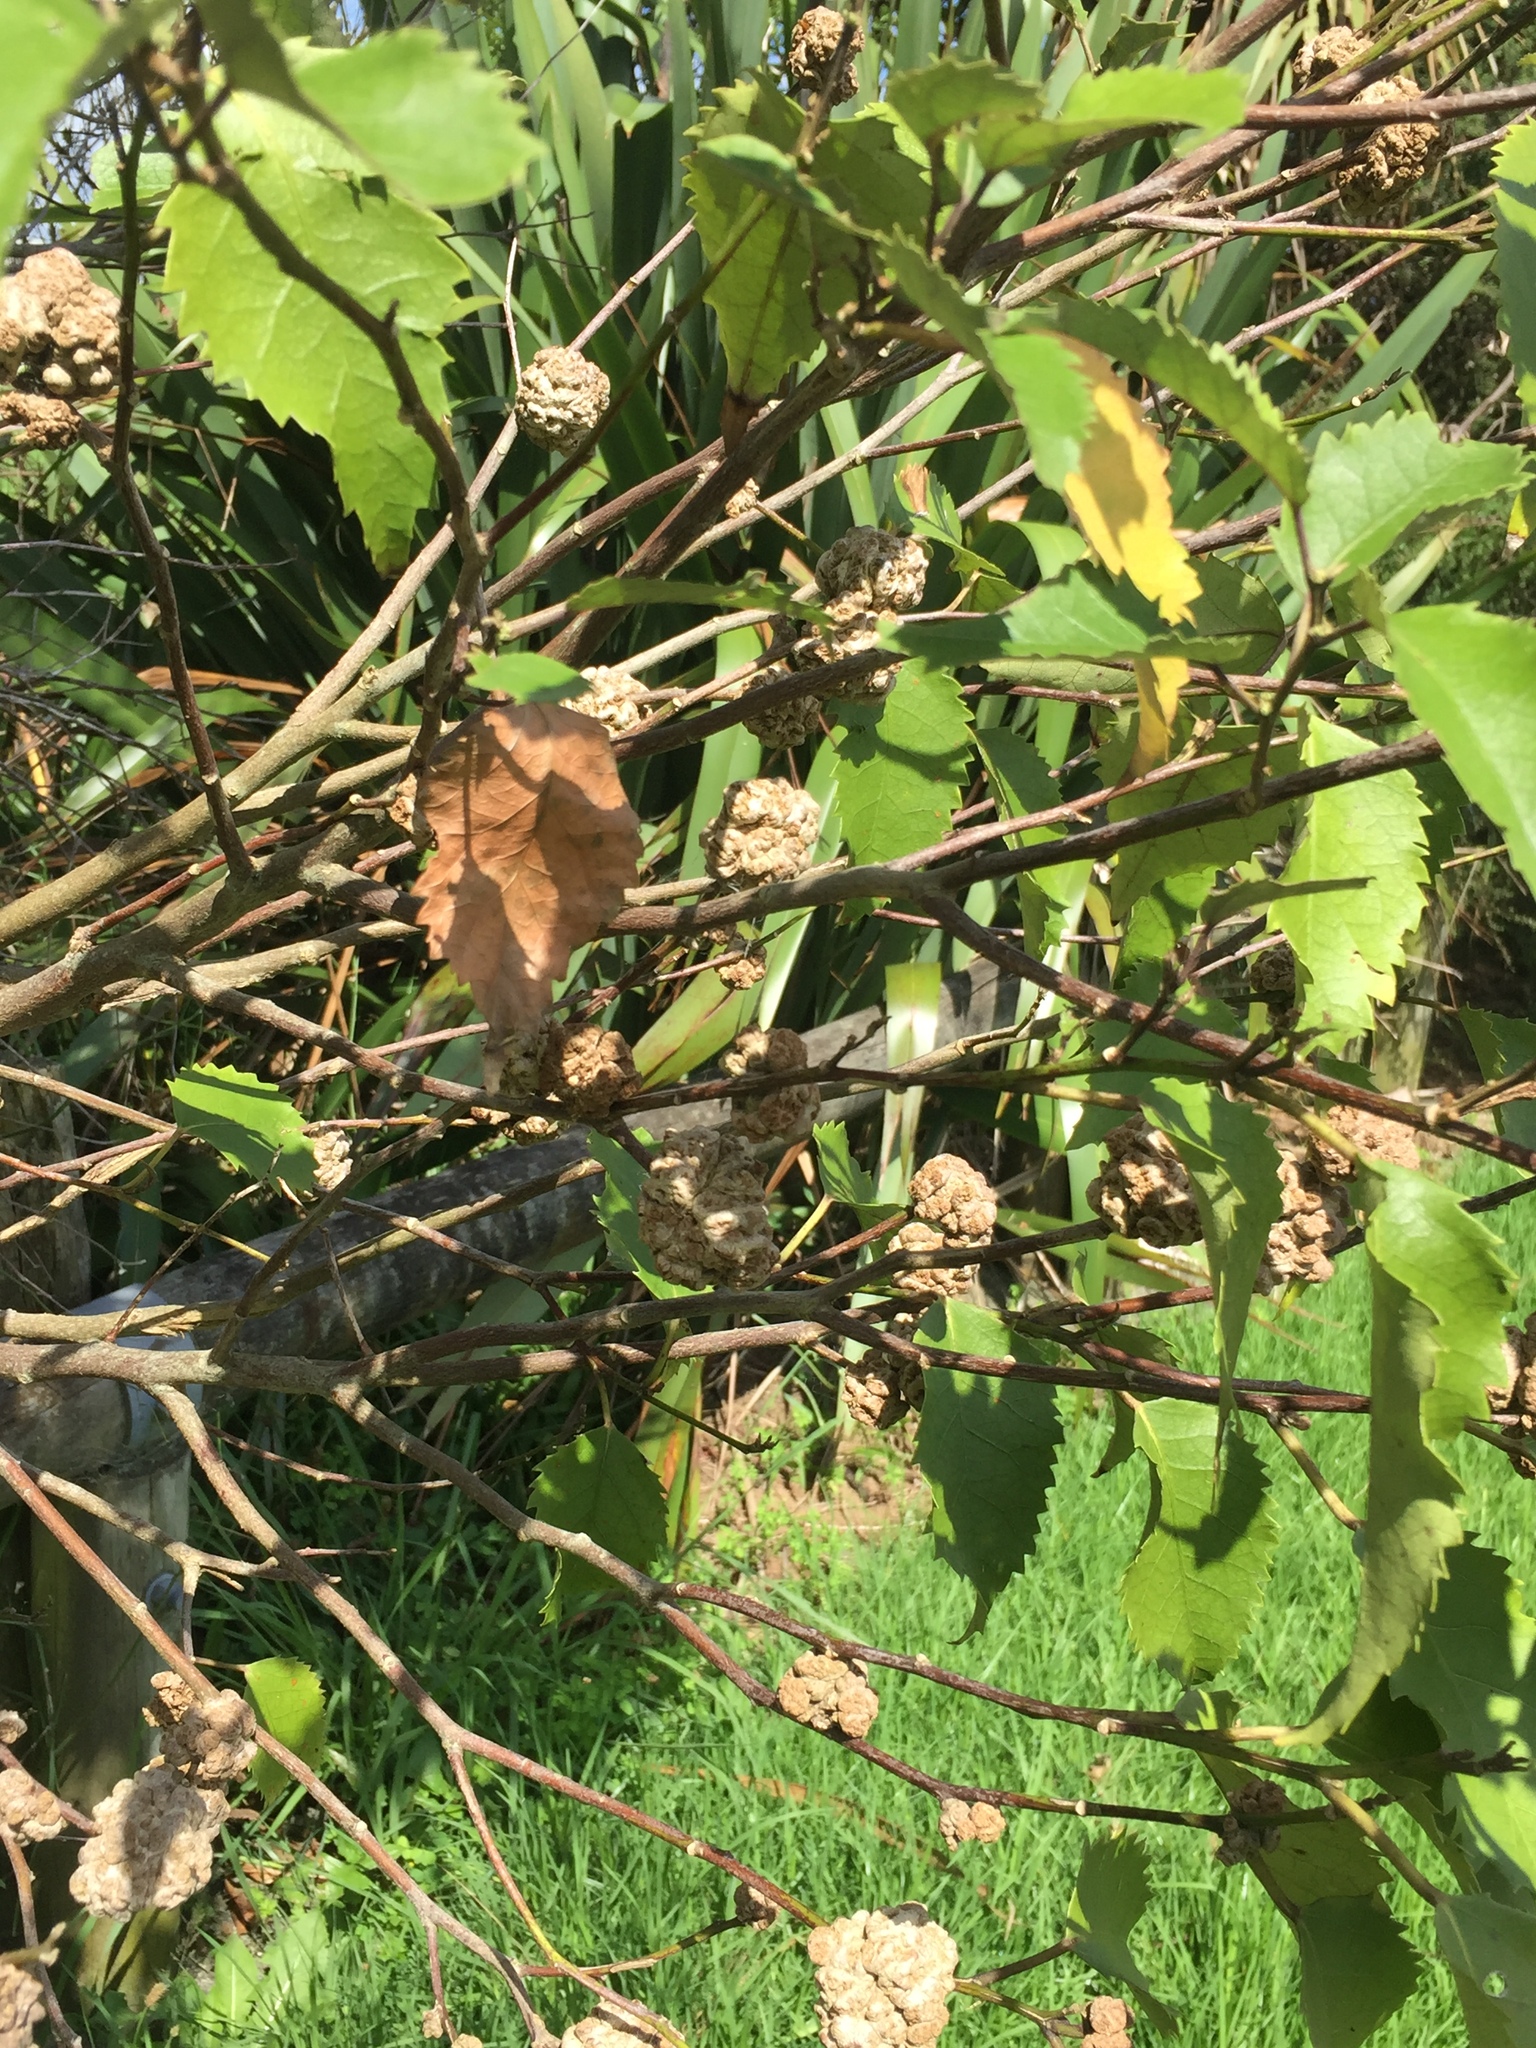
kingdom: Animalia
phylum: Arthropoda
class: Arachnida
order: Trombidiformes
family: Eriophyidae
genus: Eriophyes
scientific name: Eriophyes hoheriae
